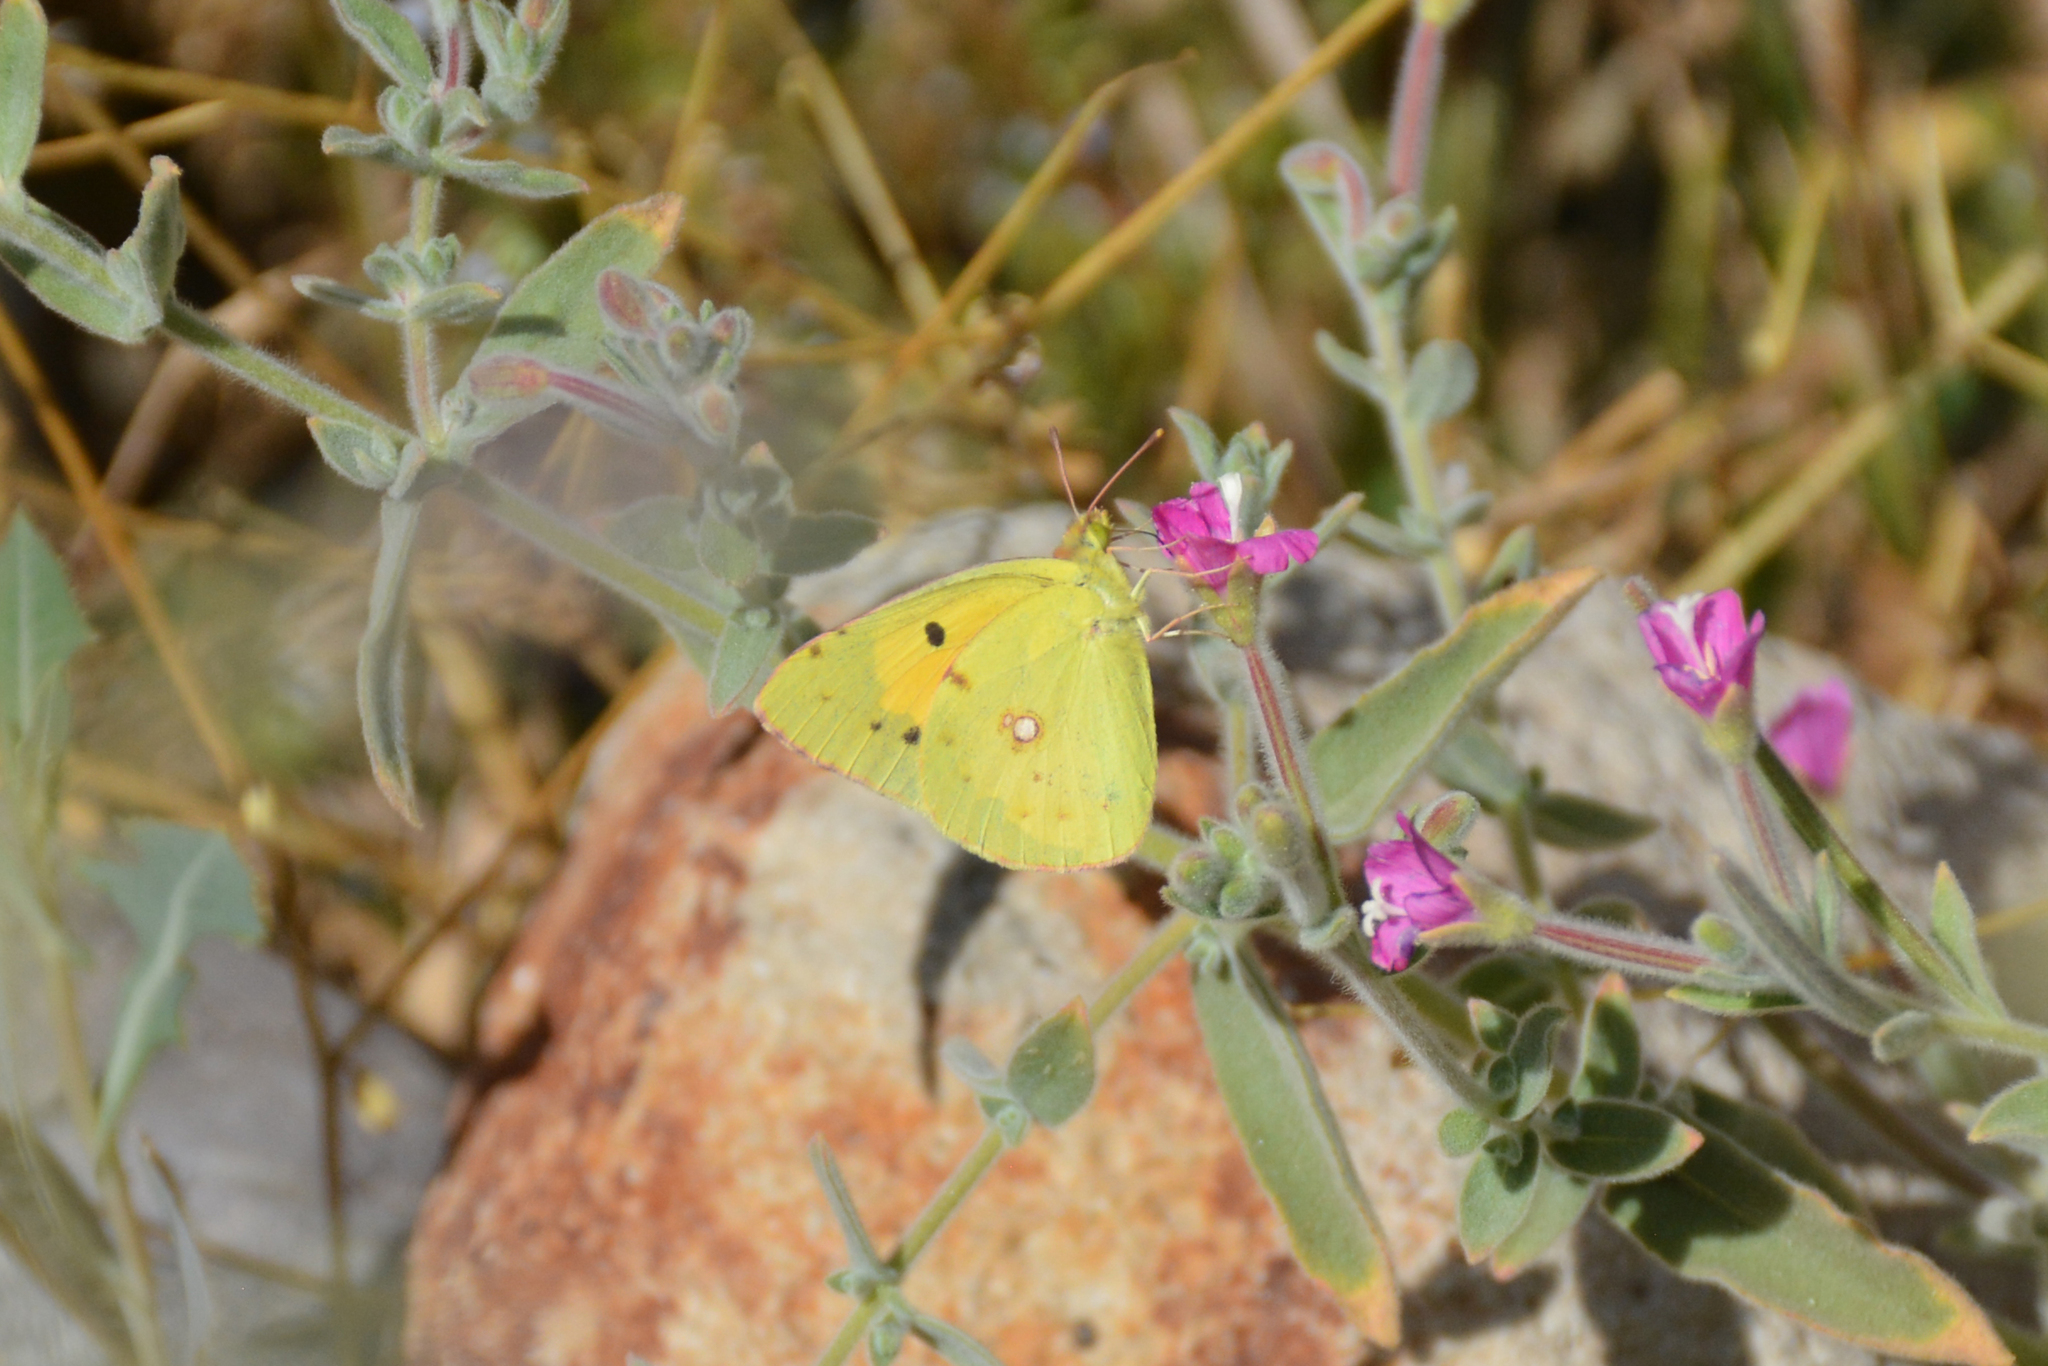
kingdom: Animalia
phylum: Arthropoda
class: Insecta
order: Lepidoptera
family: Pieridae
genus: Colias
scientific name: Colias croceus
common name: Clouded yellow
